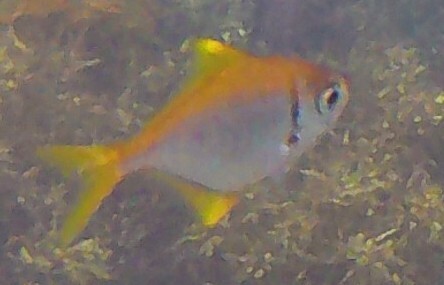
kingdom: Animalia
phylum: Chordata
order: Perciformes
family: Monodactylidae
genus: Schuettea
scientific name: Schuettea scalaripinnis
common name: Eastern pomfred
